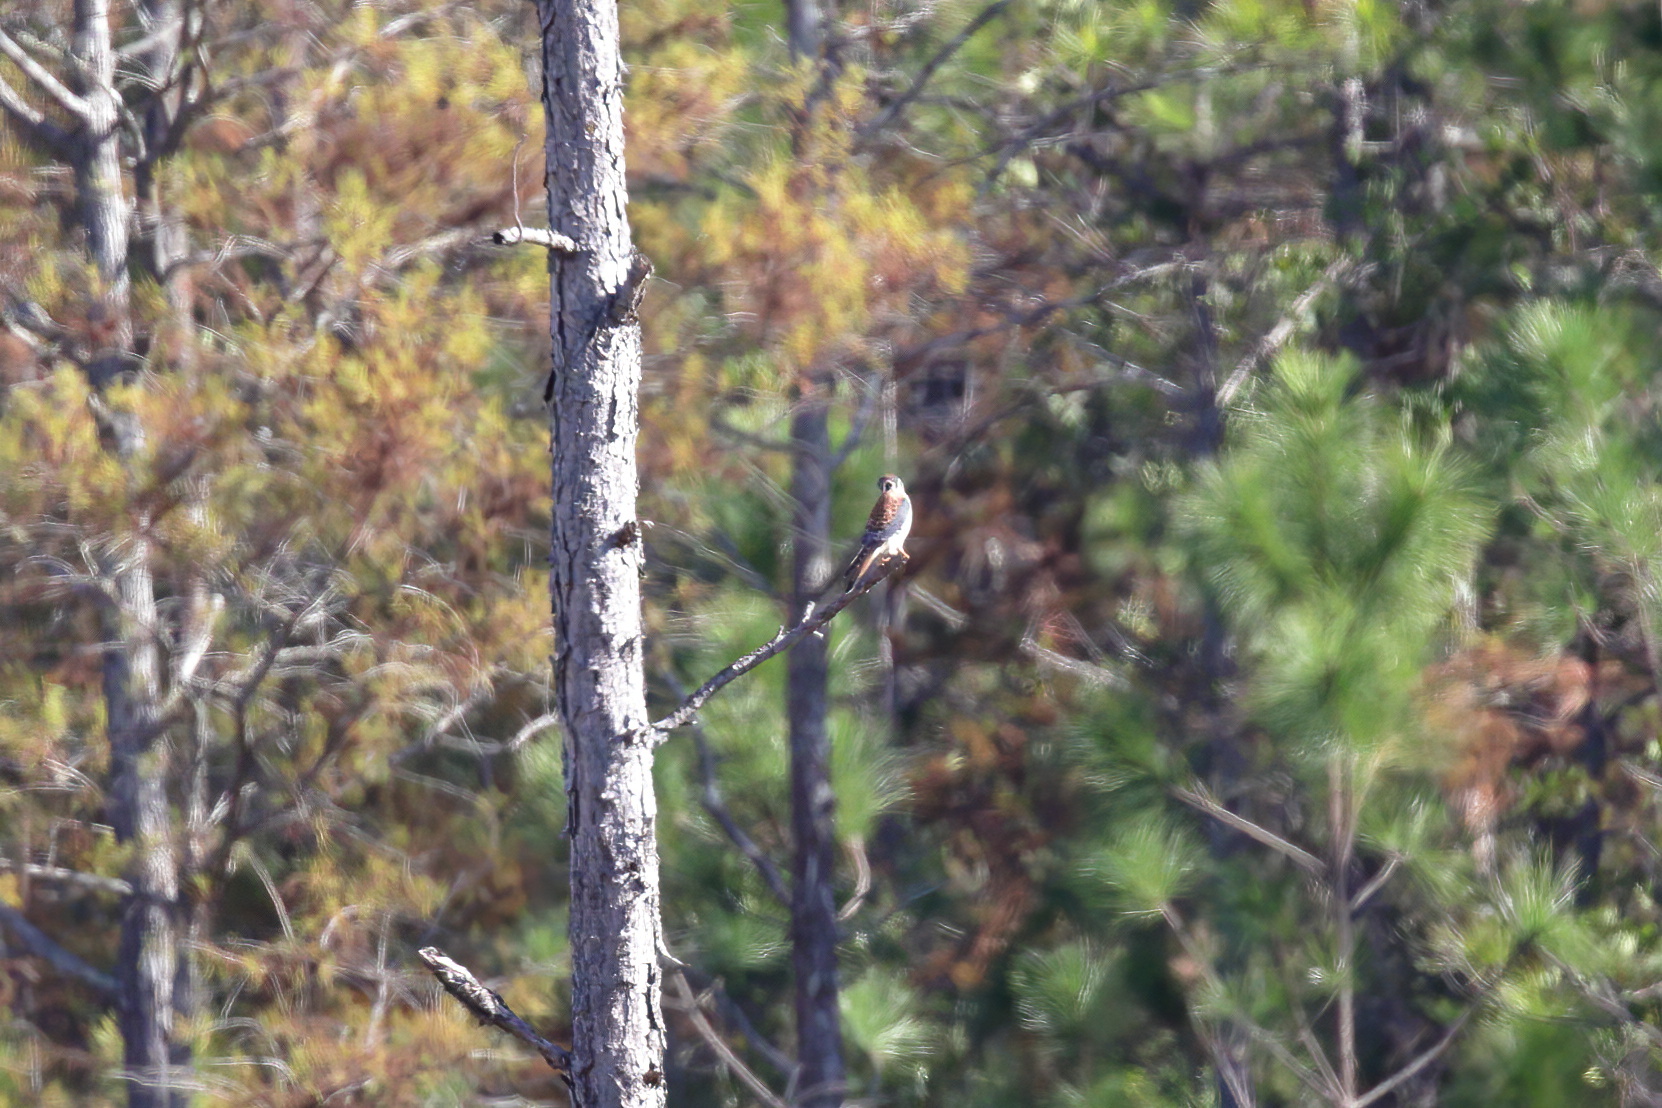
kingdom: Animalia
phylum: Chordata
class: Aves
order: Falconiformes
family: Falconidae
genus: Falco
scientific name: Falco sparverius
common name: American kestrel
